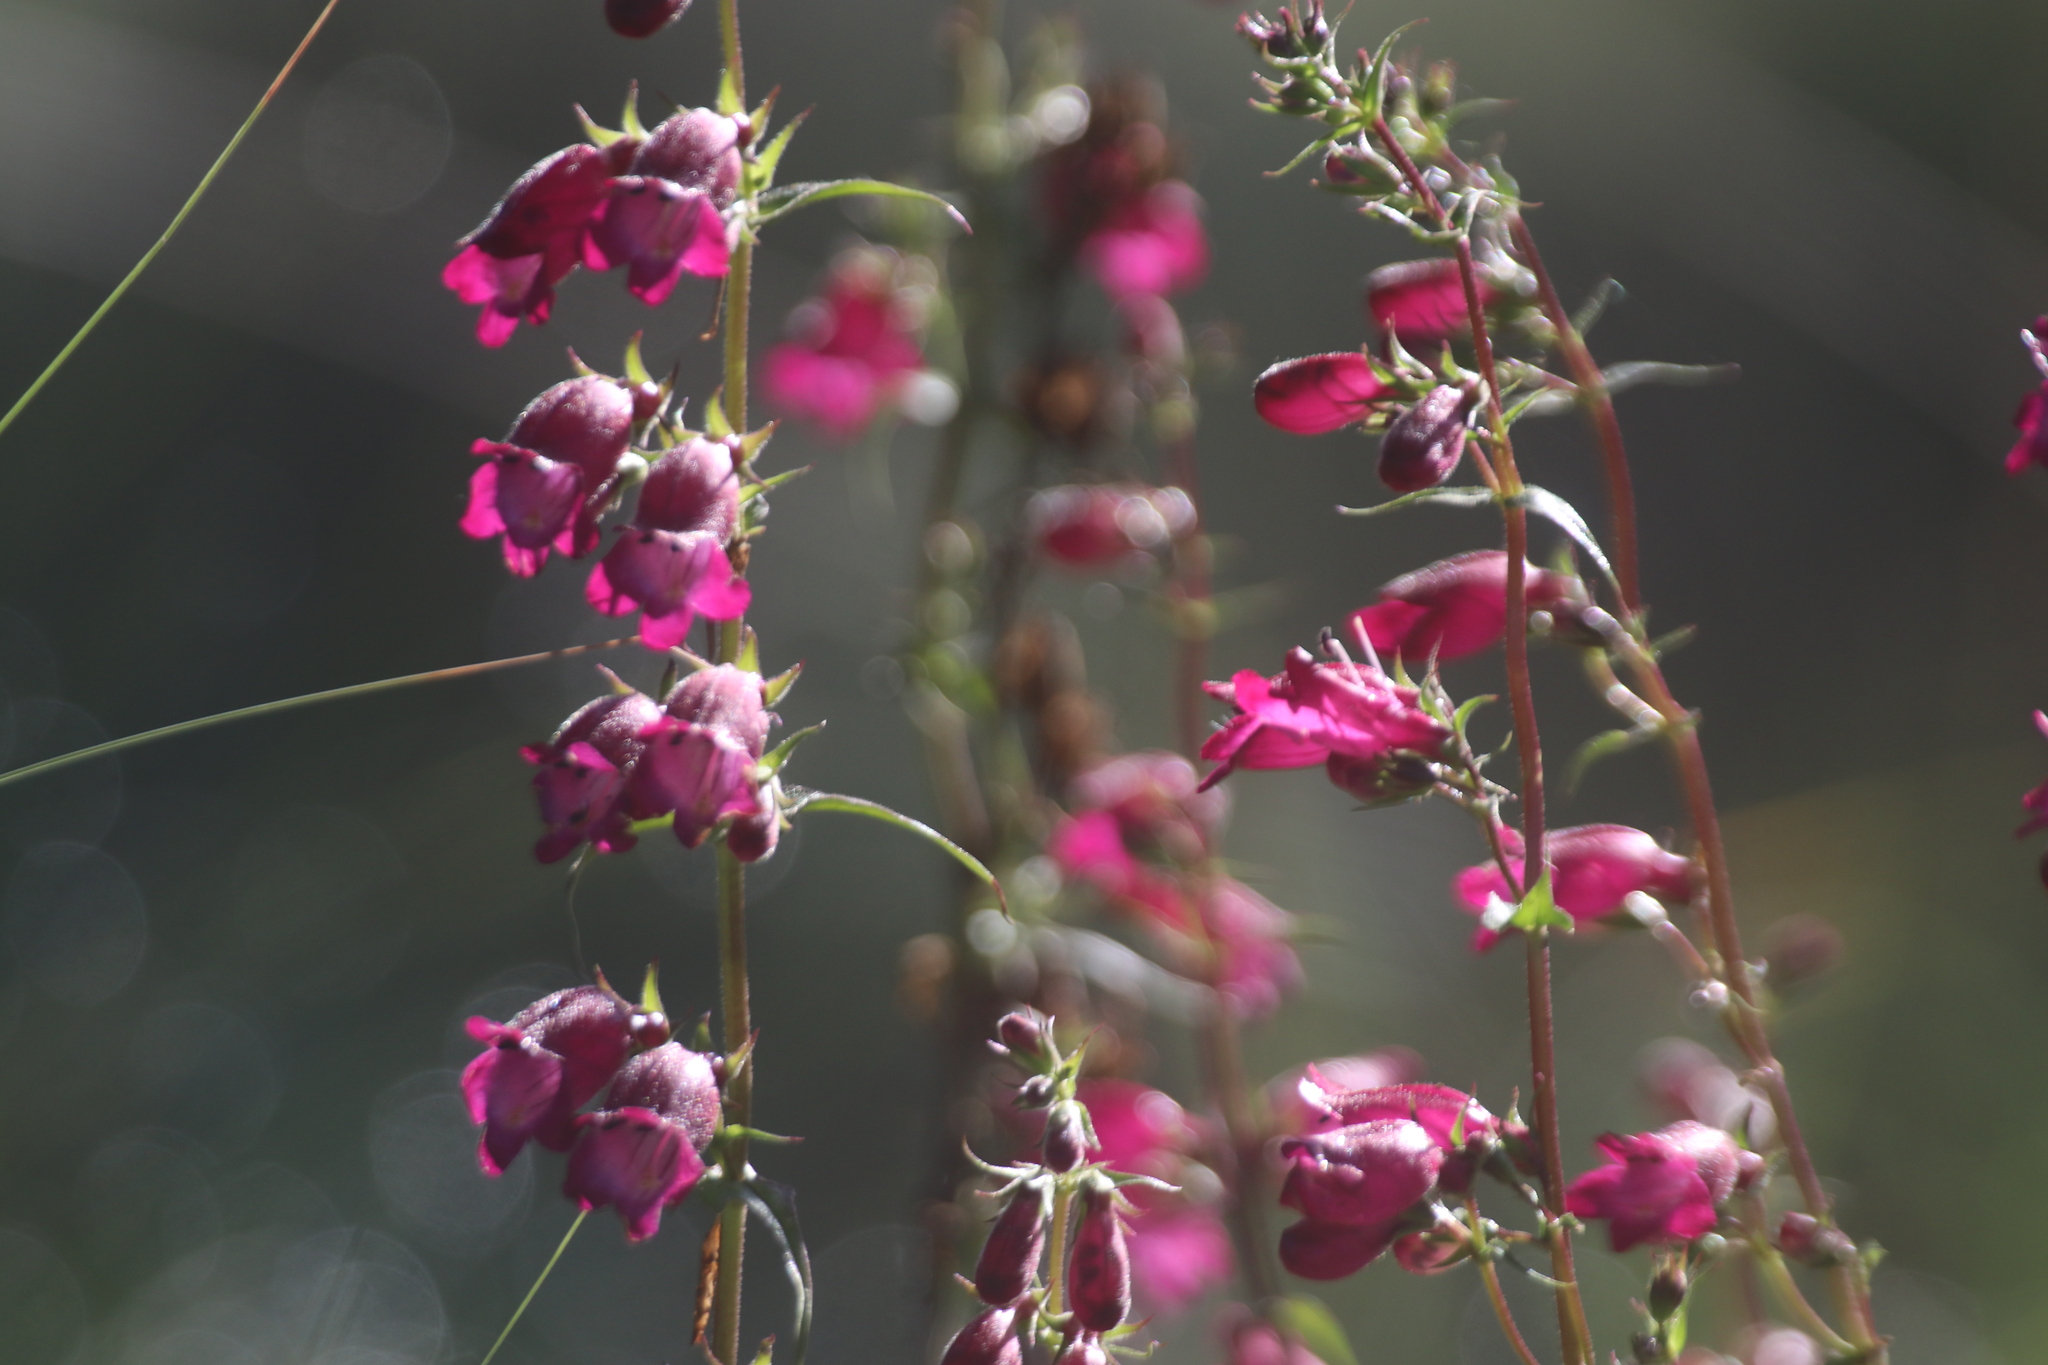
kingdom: Animalia
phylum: Ctenophora
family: Fasciculidae
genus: Fasciculus
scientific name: Fasciculus
